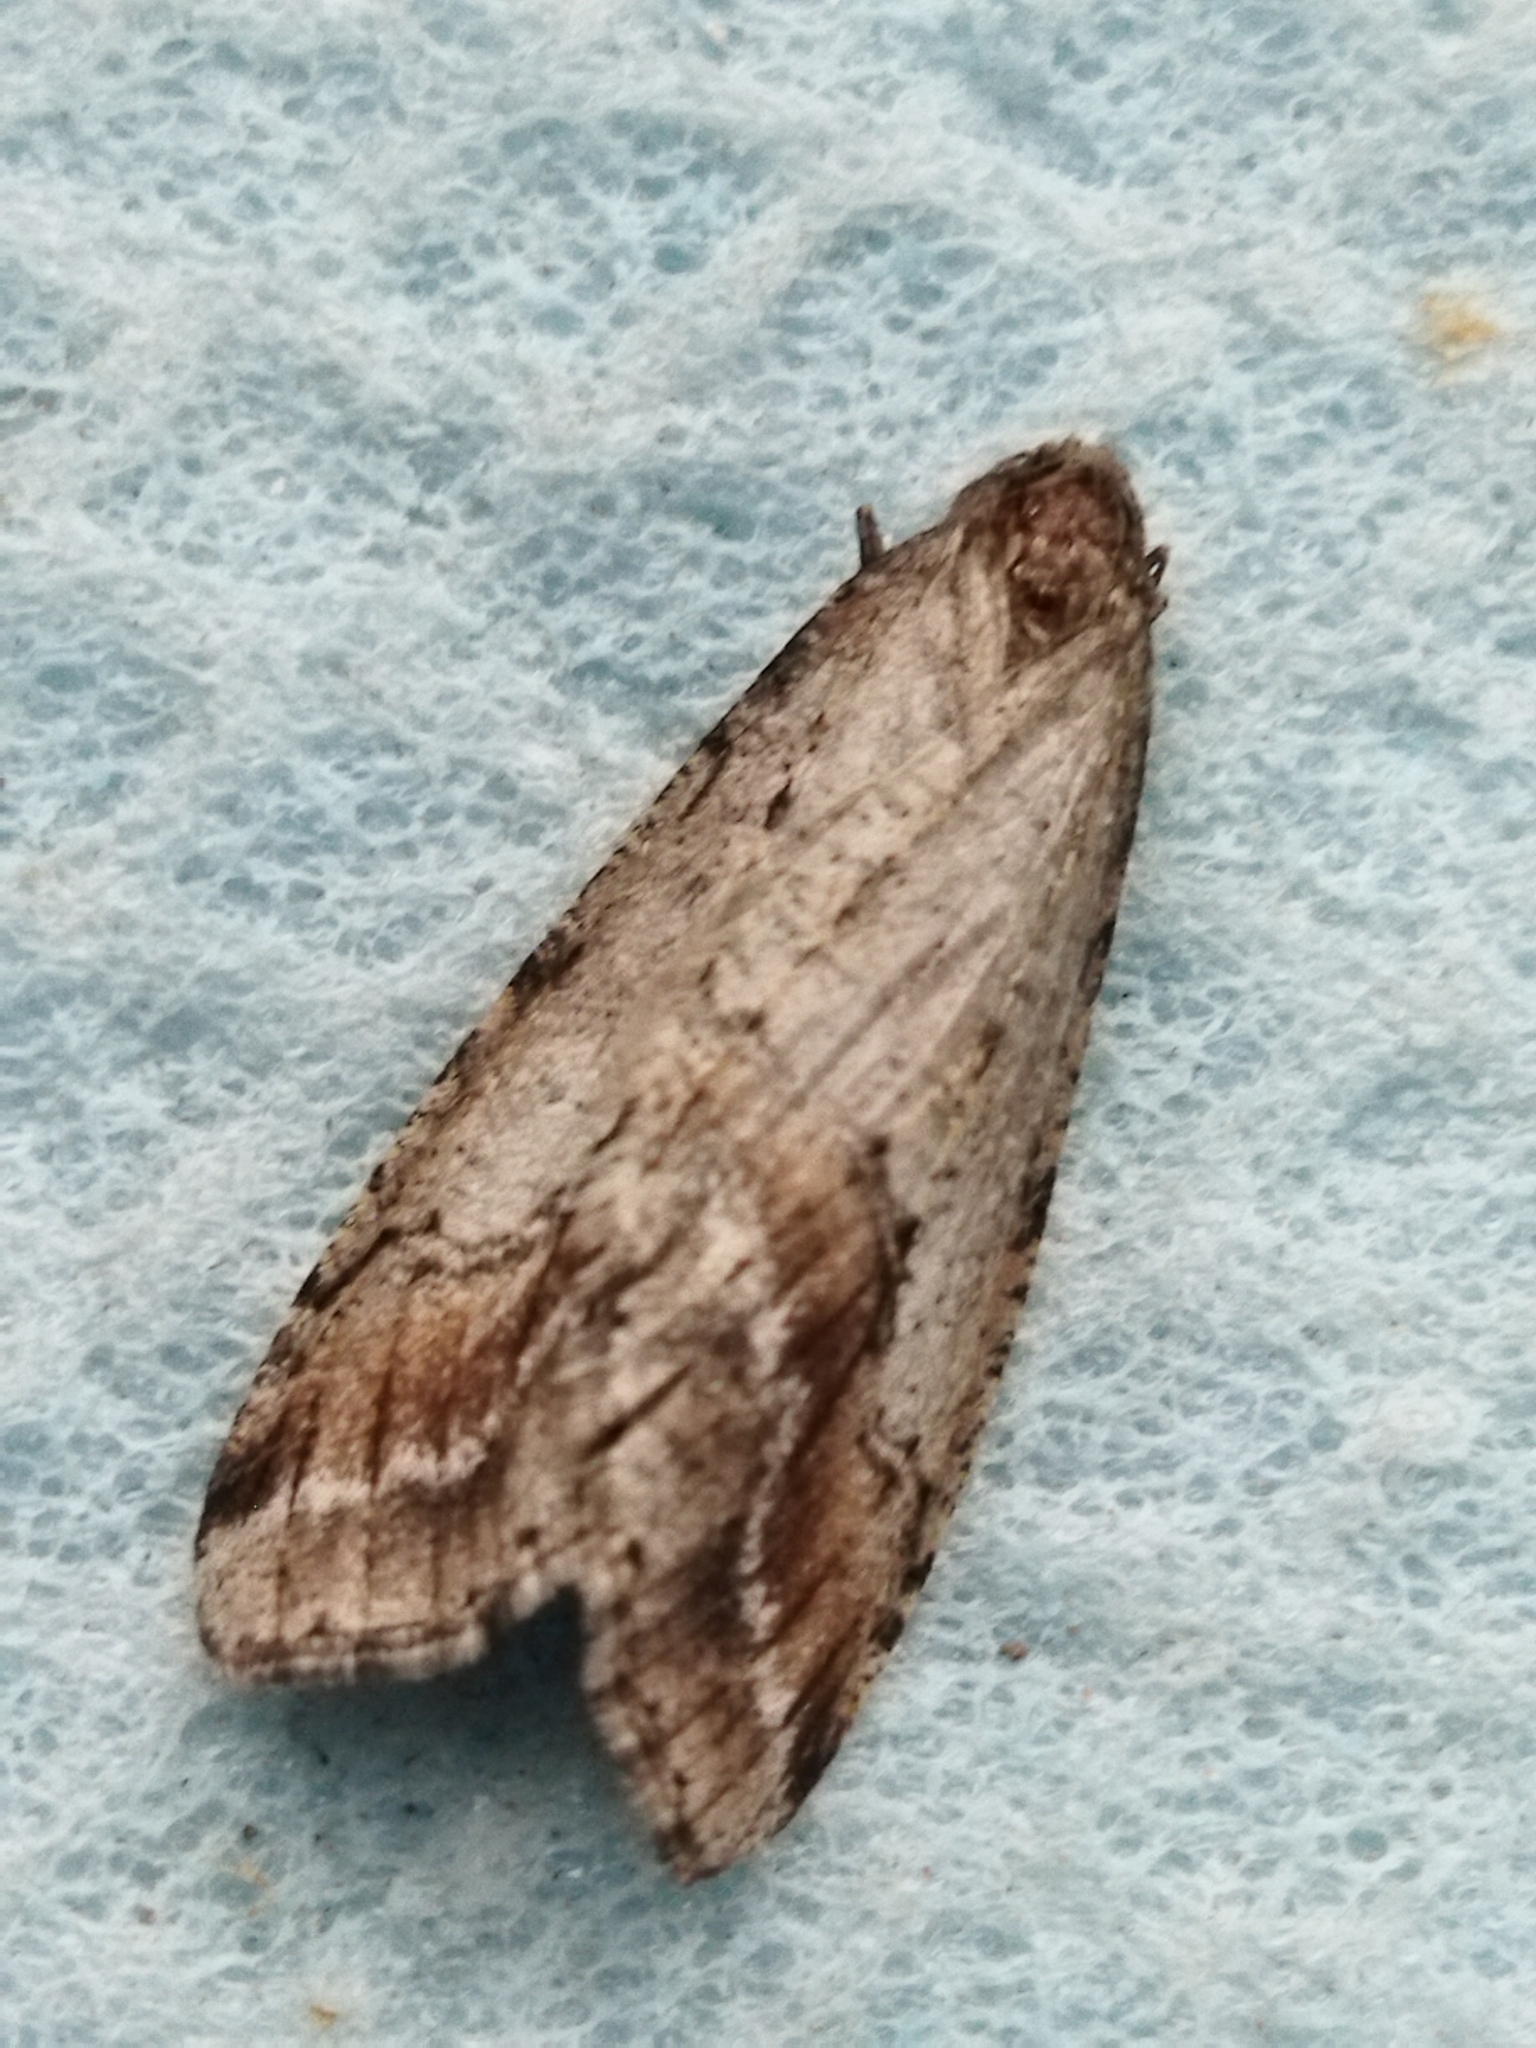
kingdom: Animalia
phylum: Arthropoda
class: Insecta
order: Lepidoptera
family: Geometridae
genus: Erannis
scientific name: Erannis declinans
